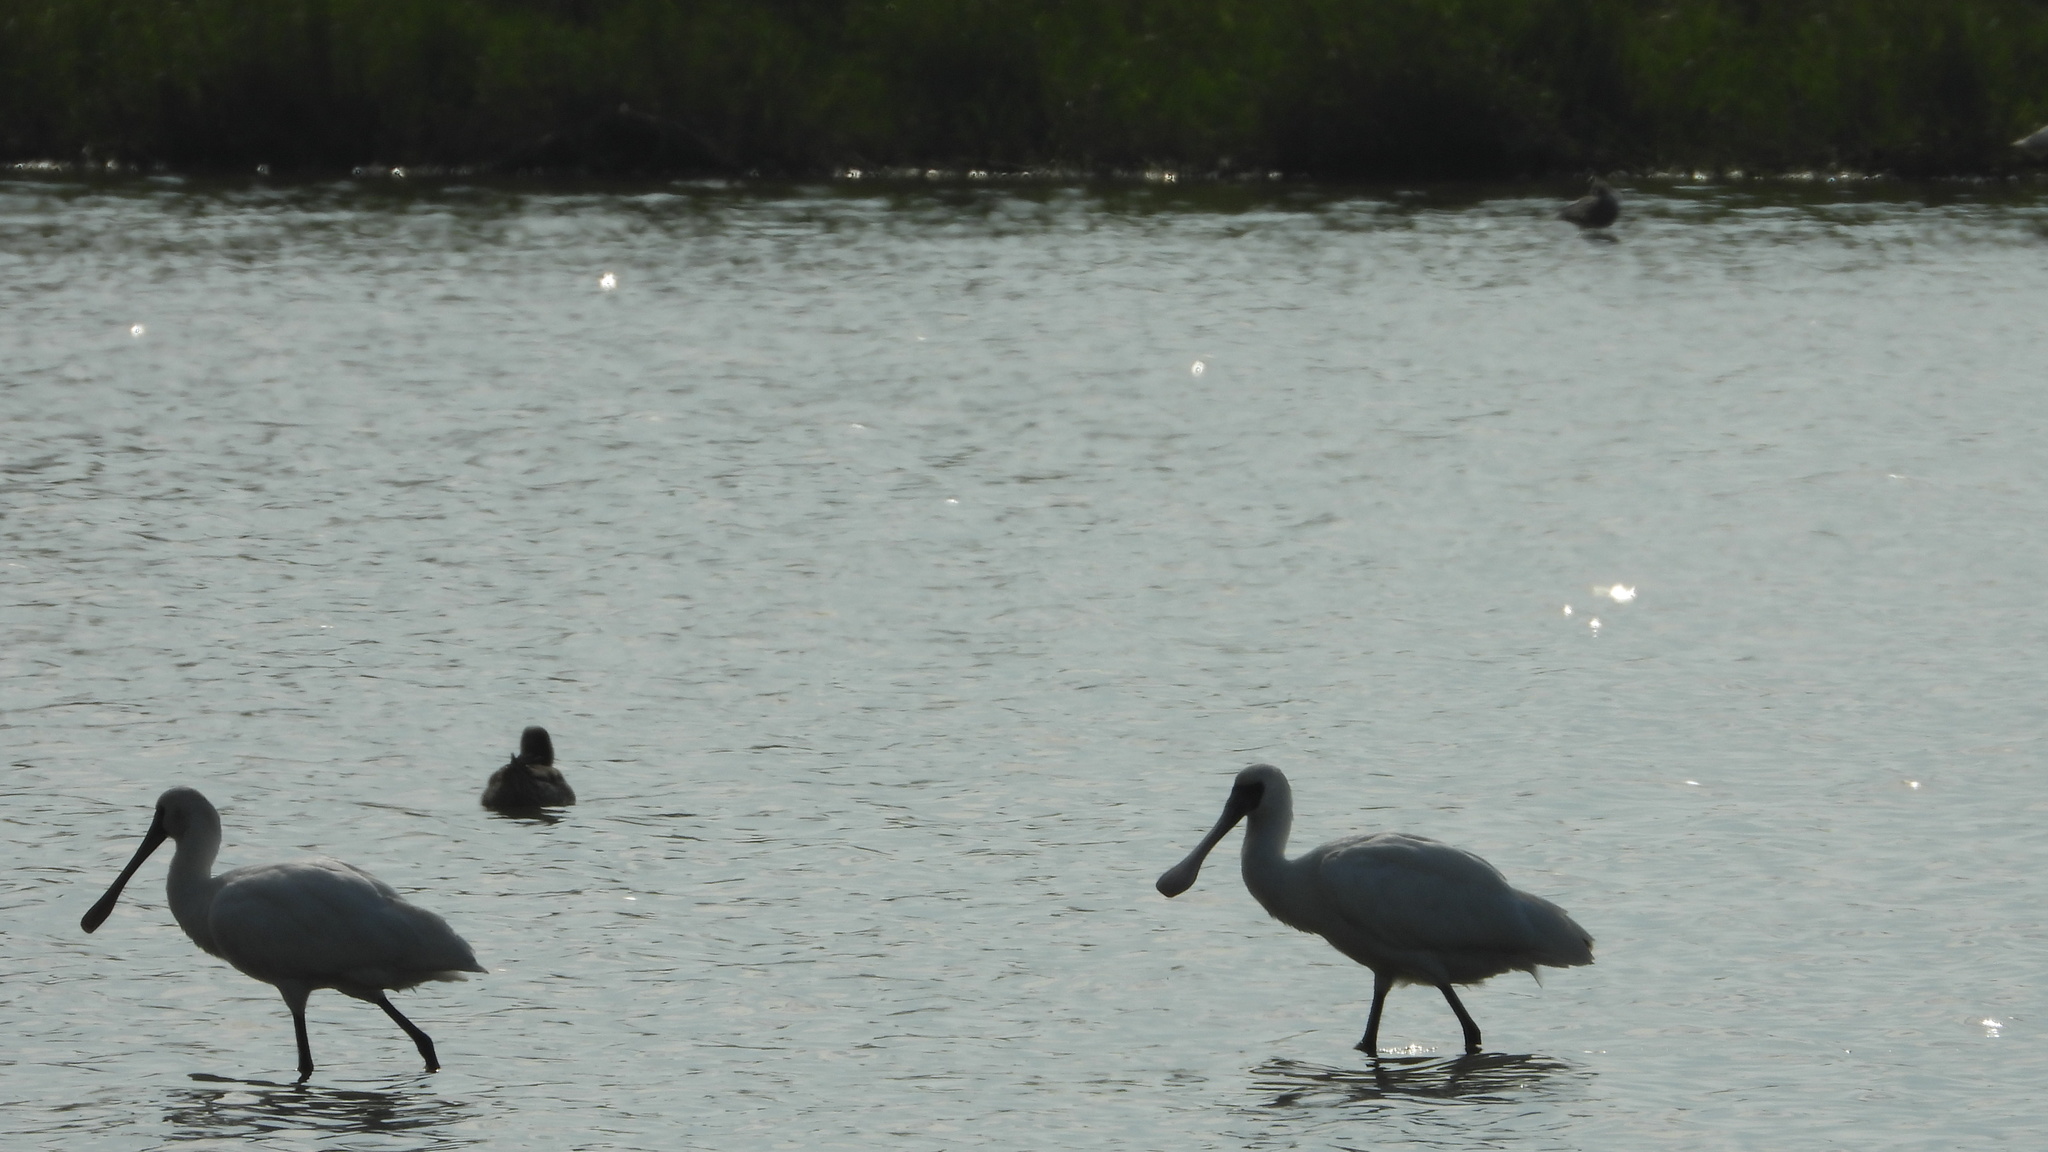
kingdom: Animalia
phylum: Chordata
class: Aves
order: Pelecaniformes
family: Threskiornithidae
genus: Platalea
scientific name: Platalea minor
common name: Black-faced spoonbill
